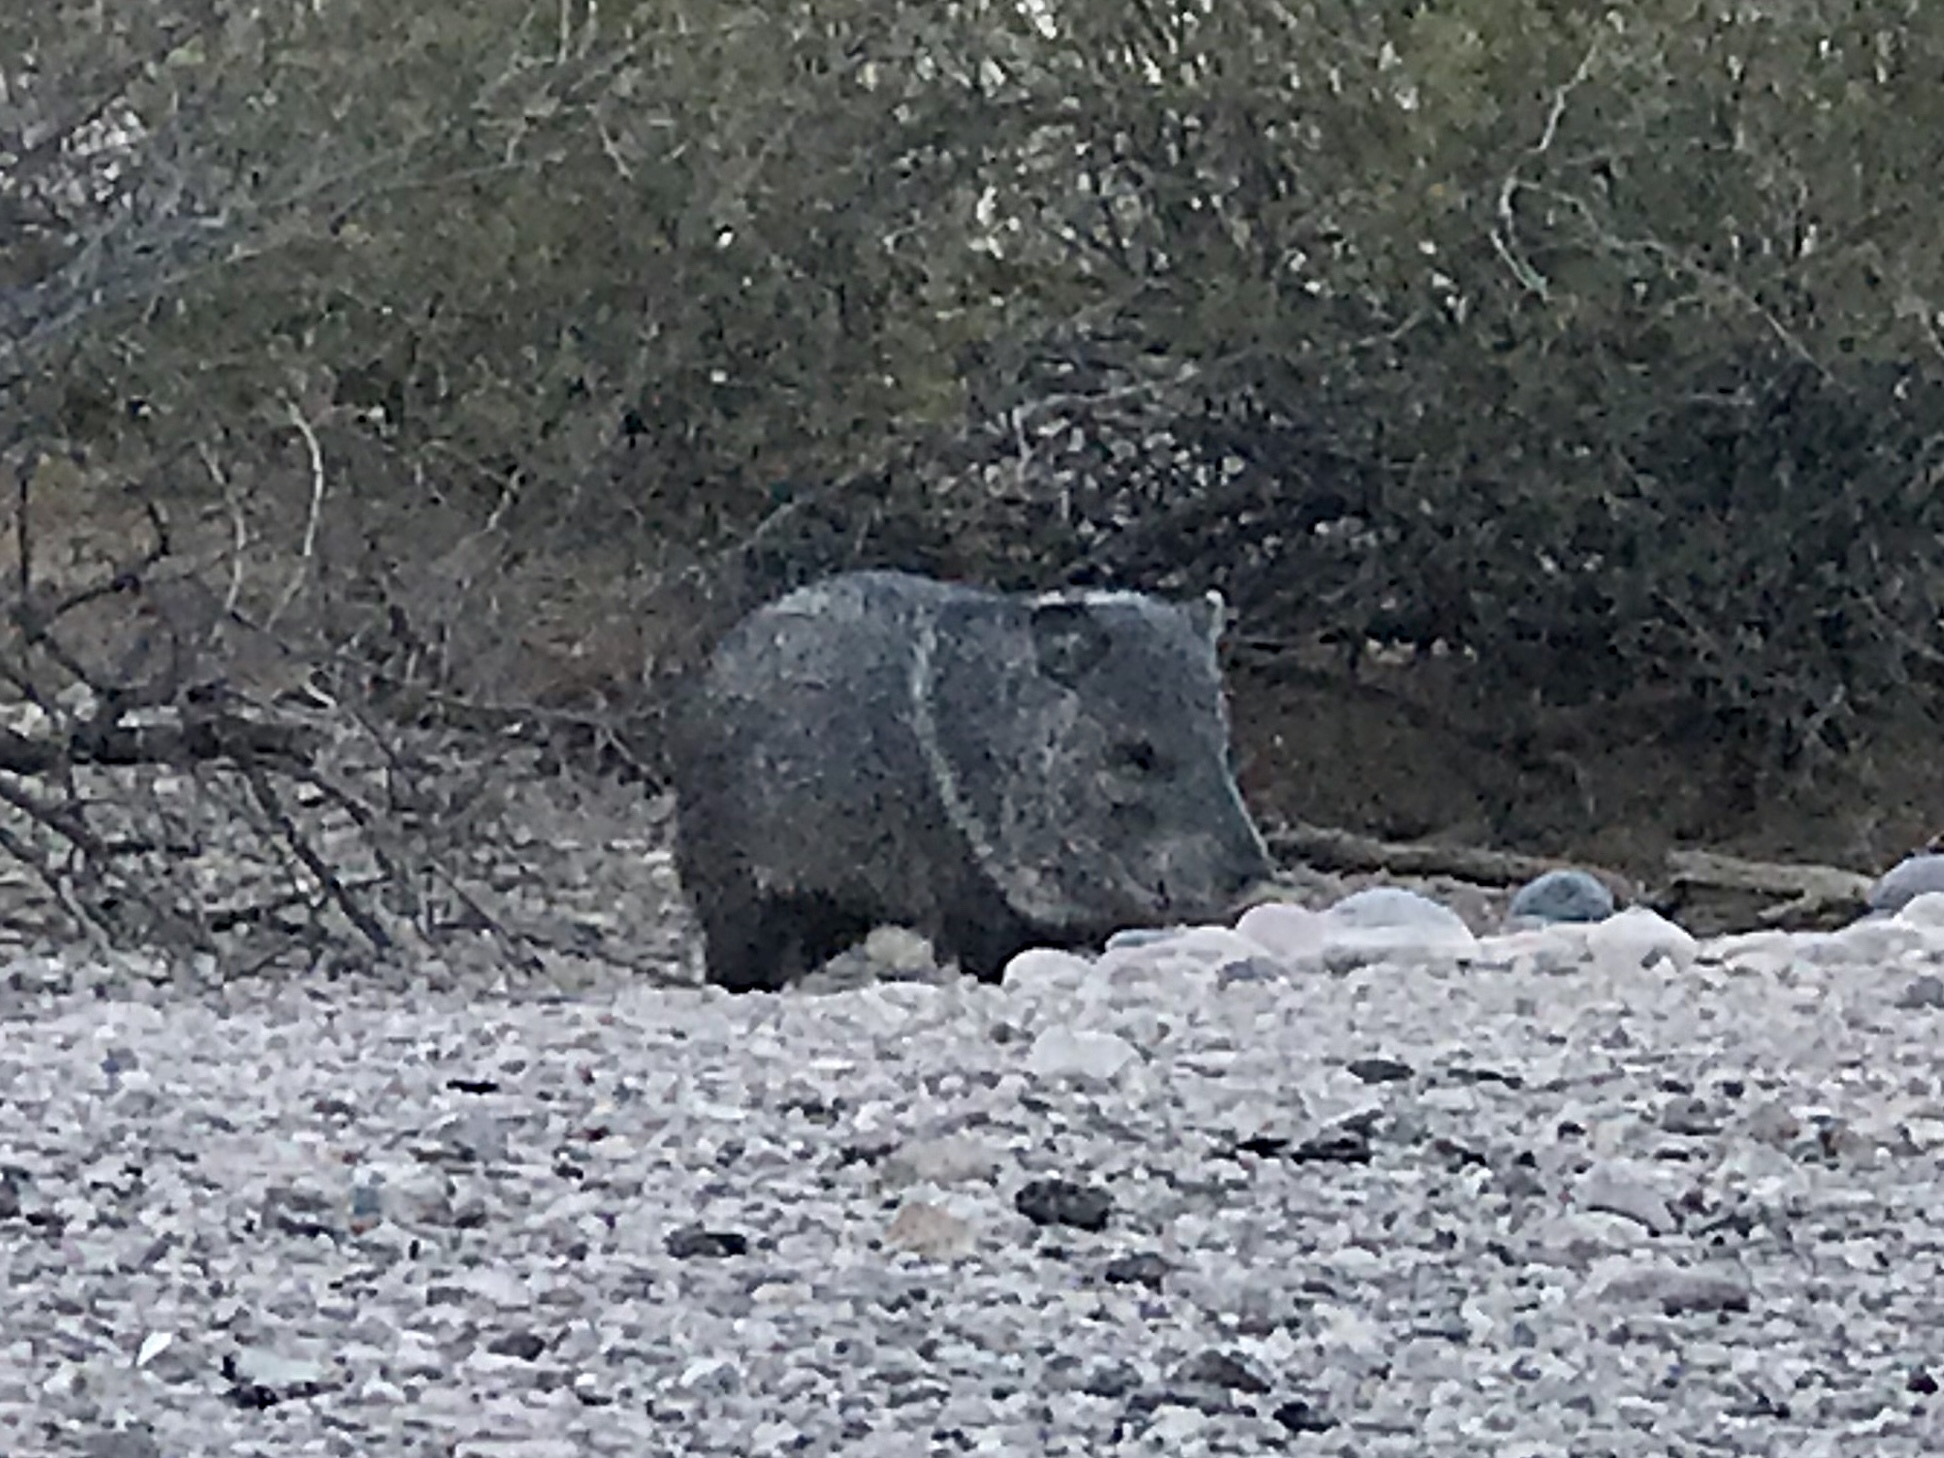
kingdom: Animalia
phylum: Chordata
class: Mammalia
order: Artiodactyla
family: Tayassuidae
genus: Pecari
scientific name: Pecari tajacu
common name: Collared peccary
